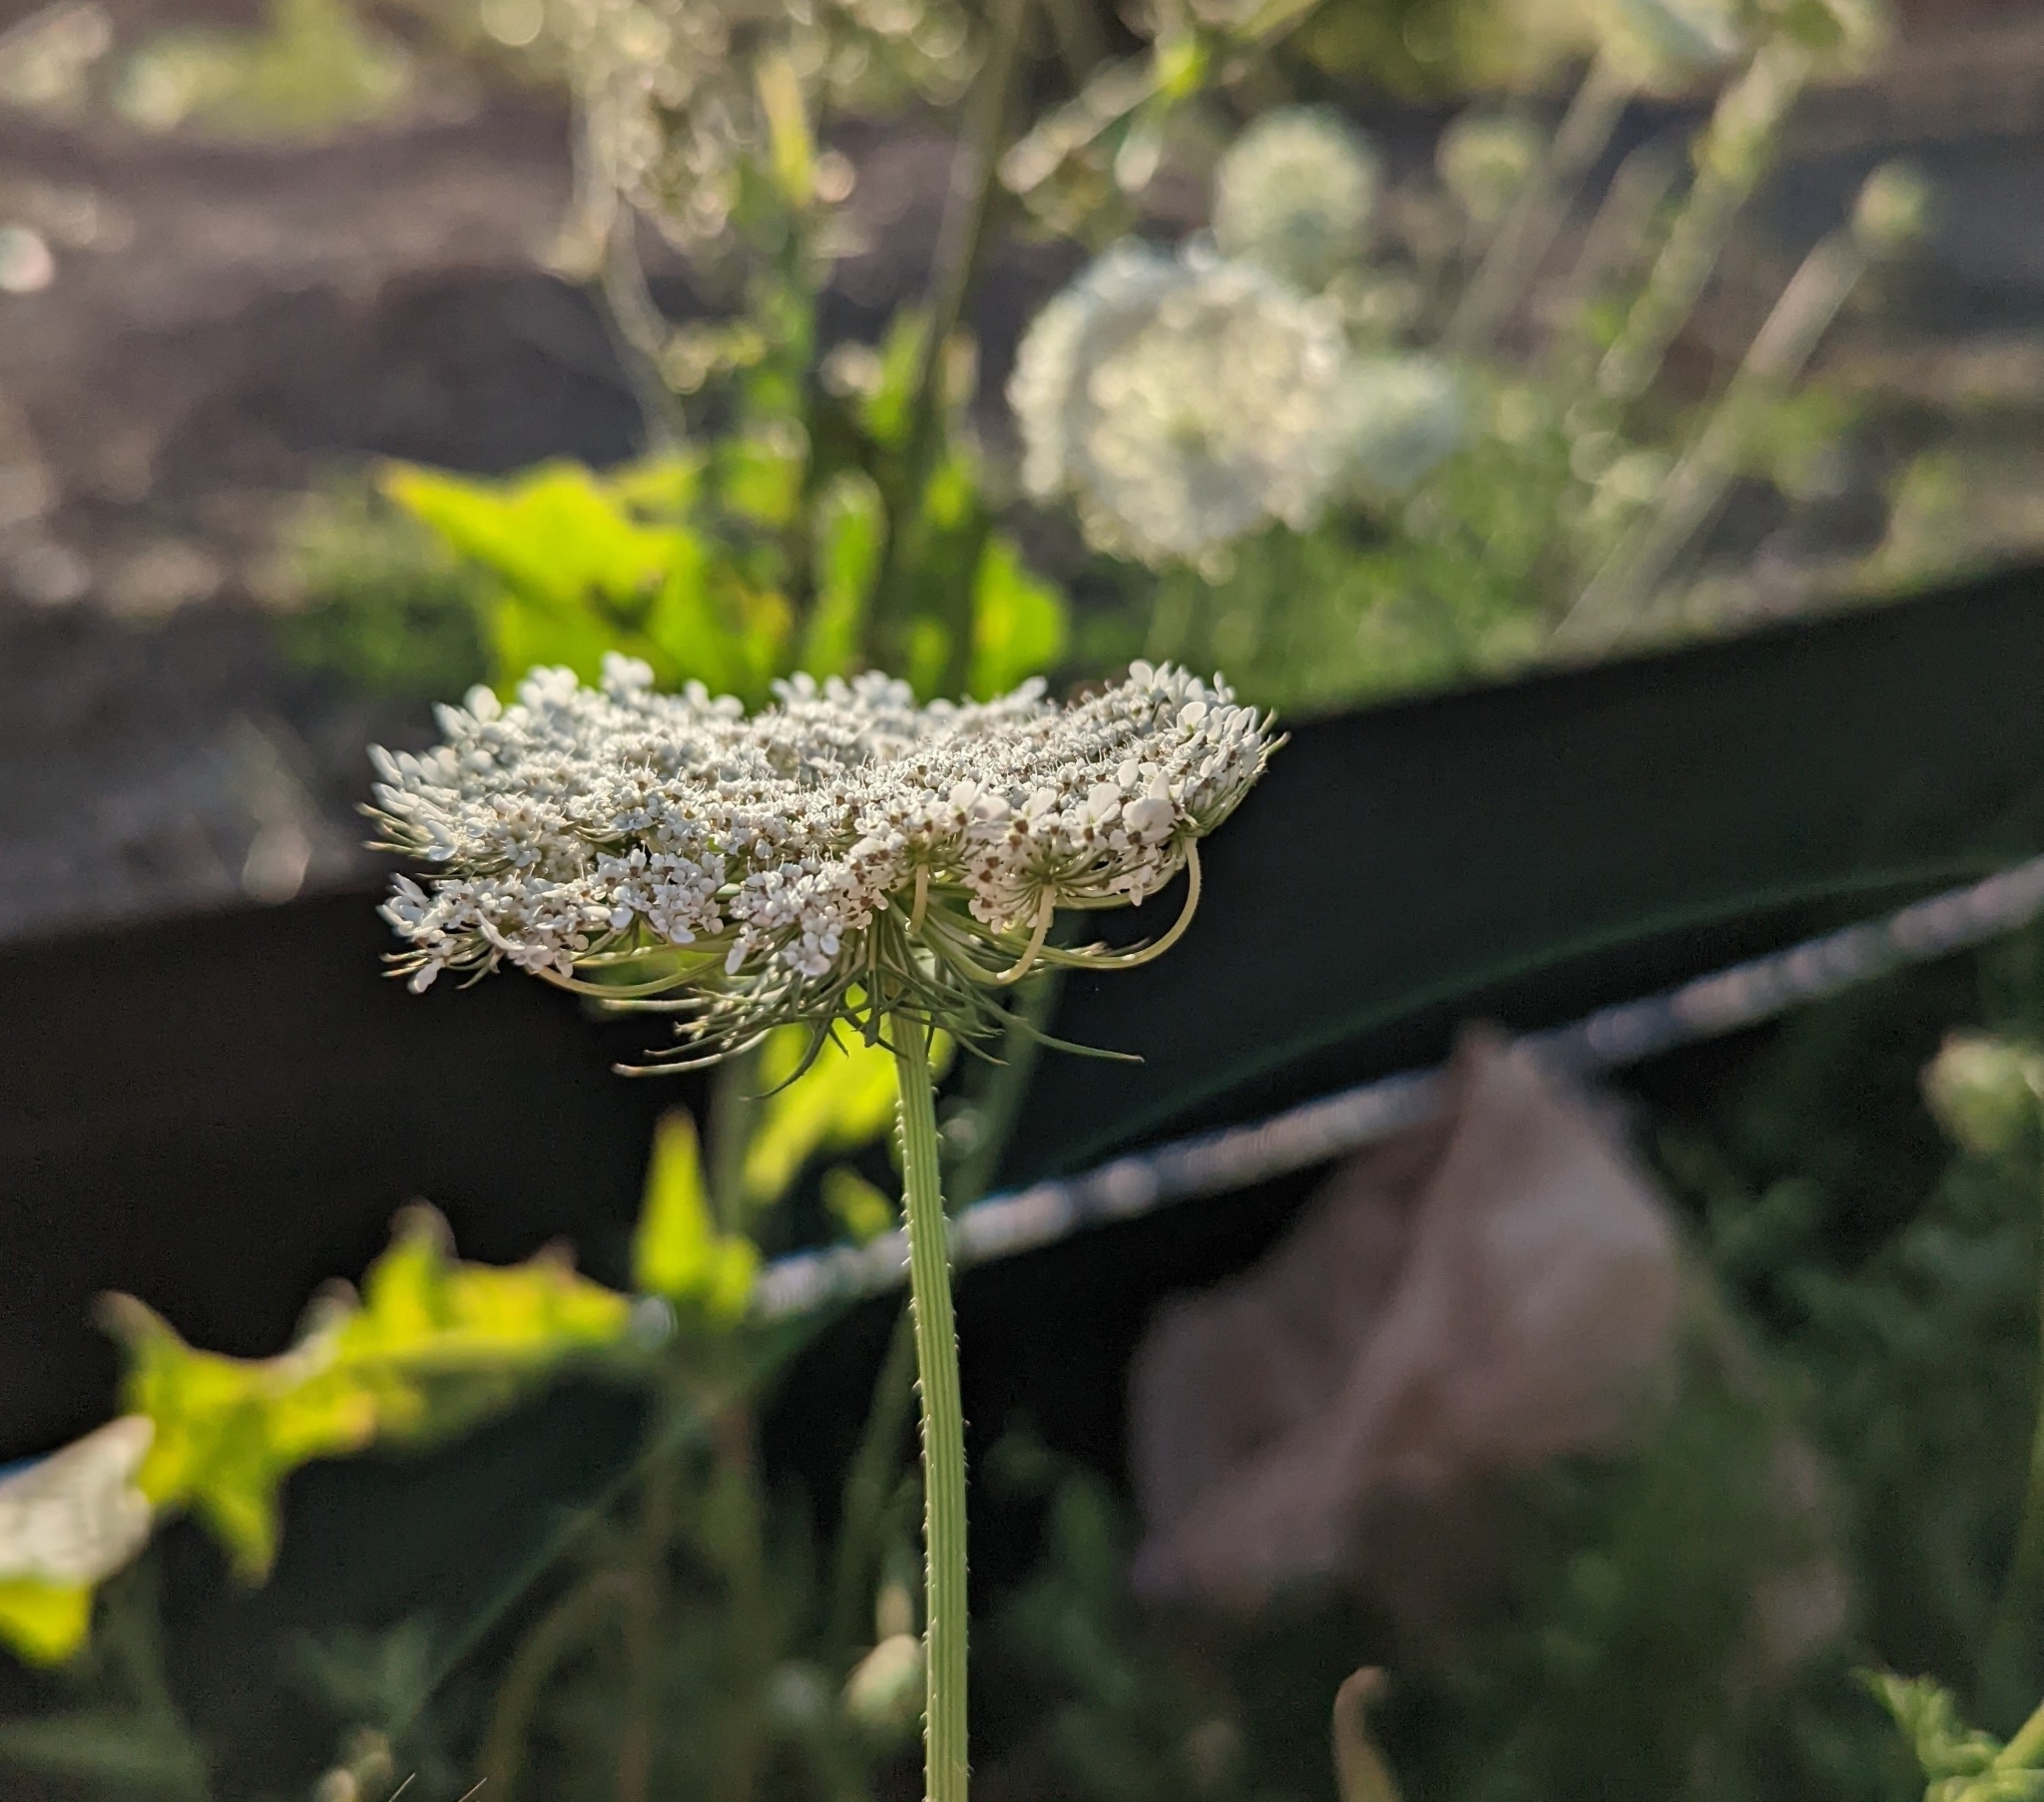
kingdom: Plantae
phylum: Tracheophyta
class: Magnoliopsida
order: Apiales
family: Apiaceae
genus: Daucus
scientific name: Daucus carota
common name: Wild carrot
